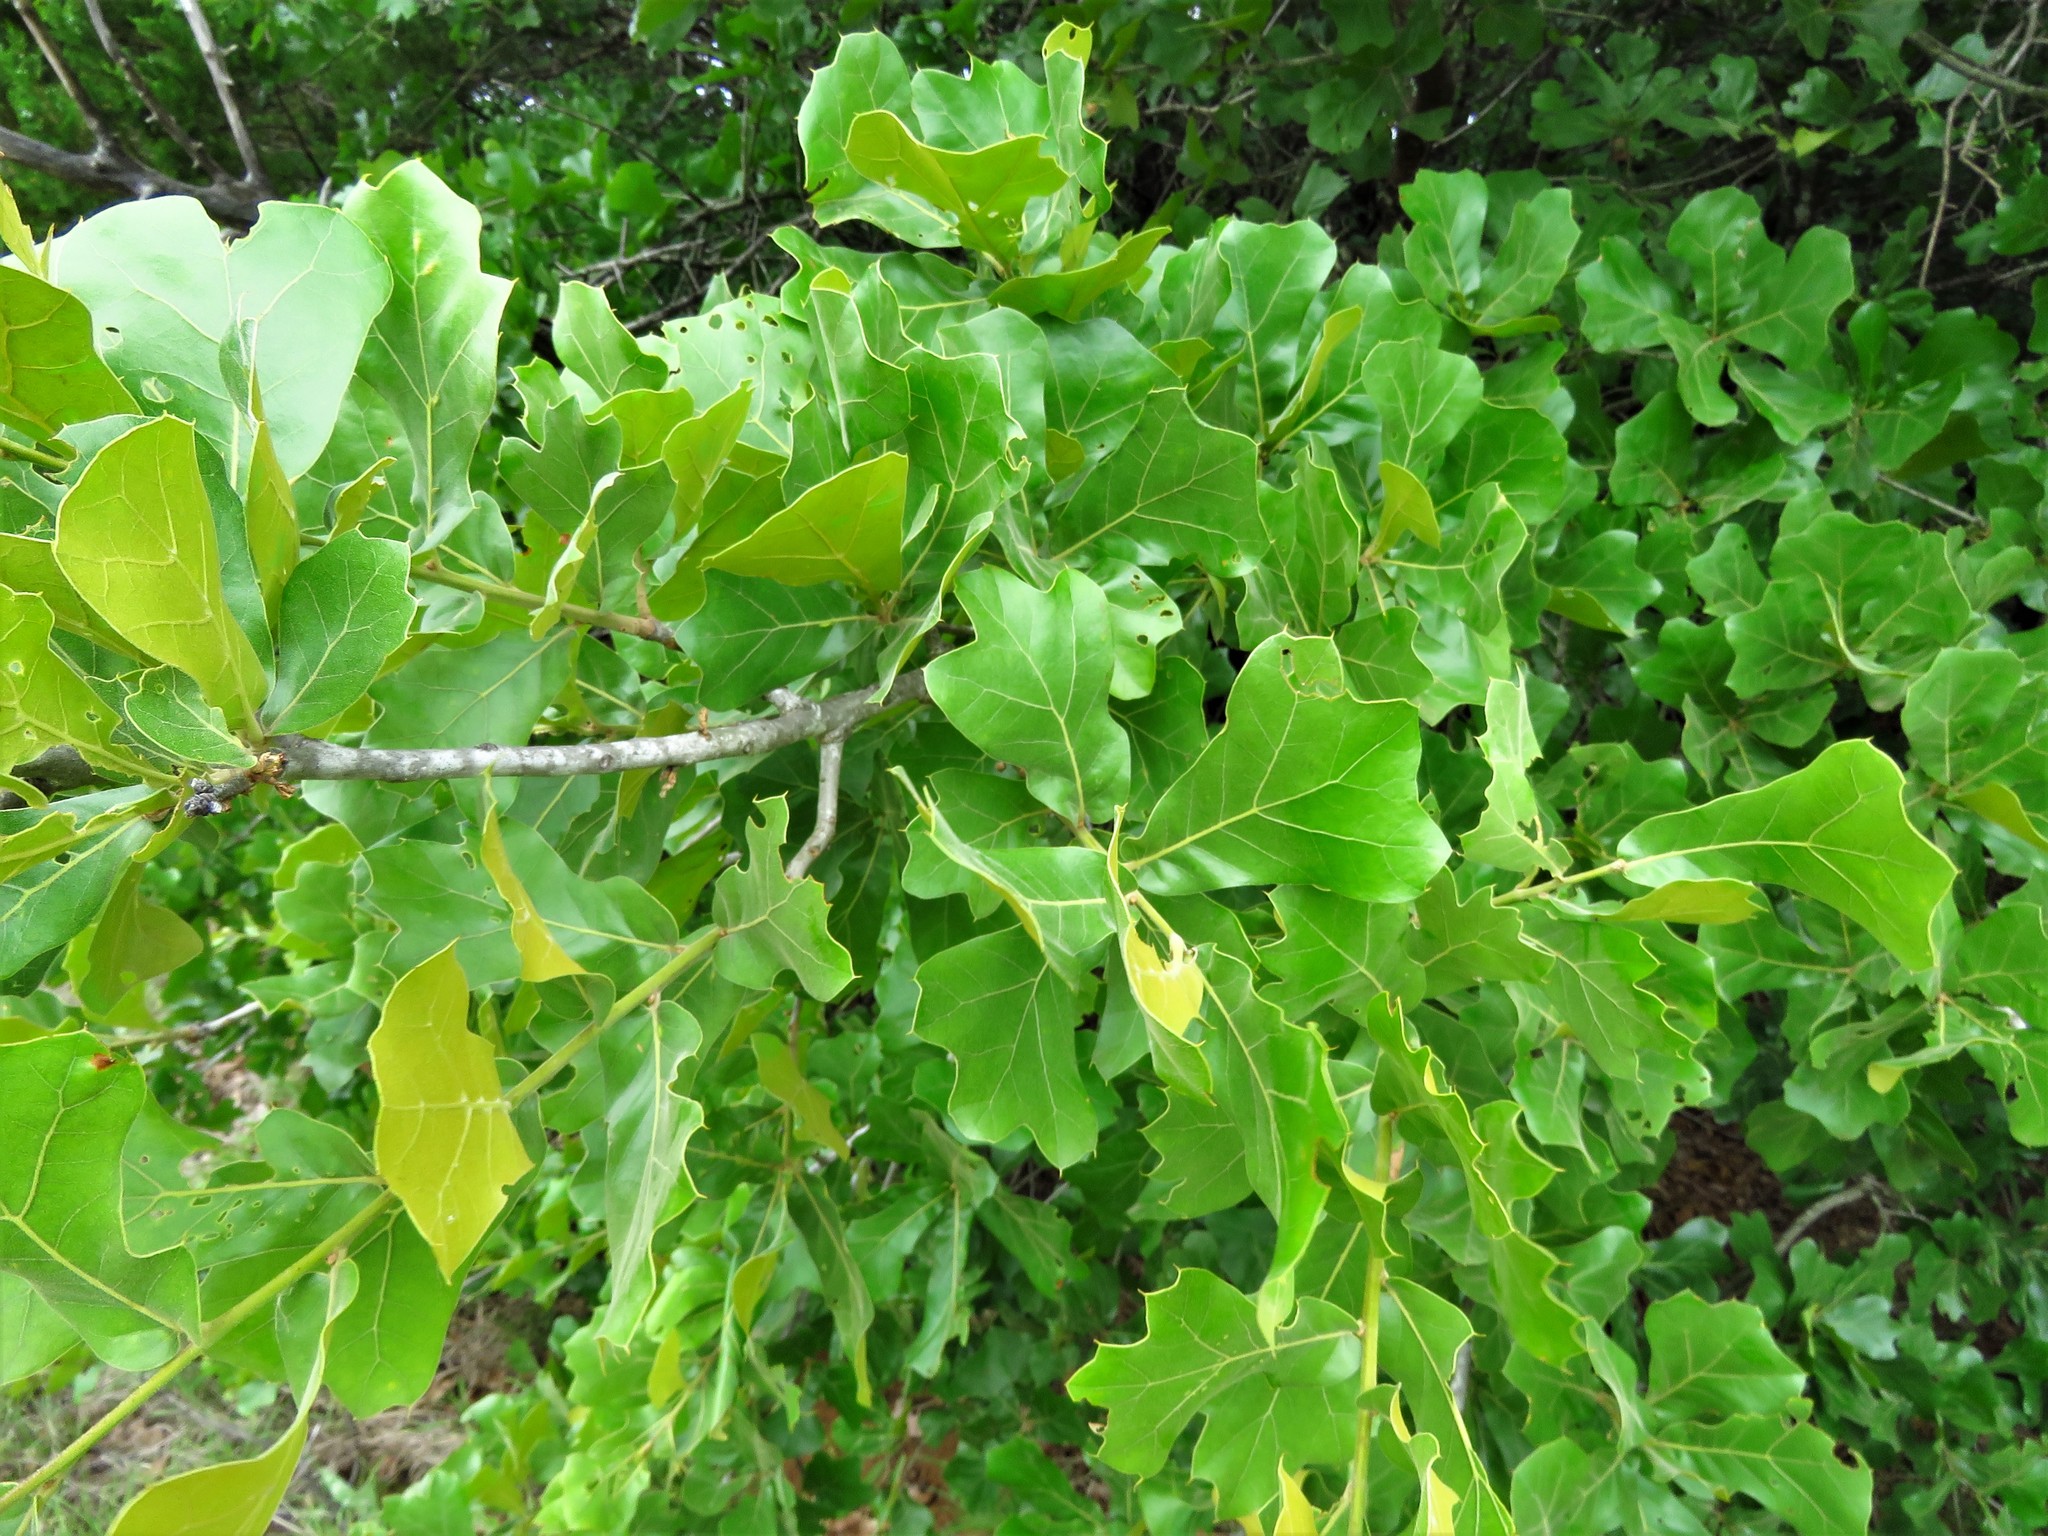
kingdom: Plantae
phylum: Tracheophyta
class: Magnoliopsida
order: Fagales
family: Fagaceae
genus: Quercus
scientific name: Quercus marilandica
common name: Blackjack oak
